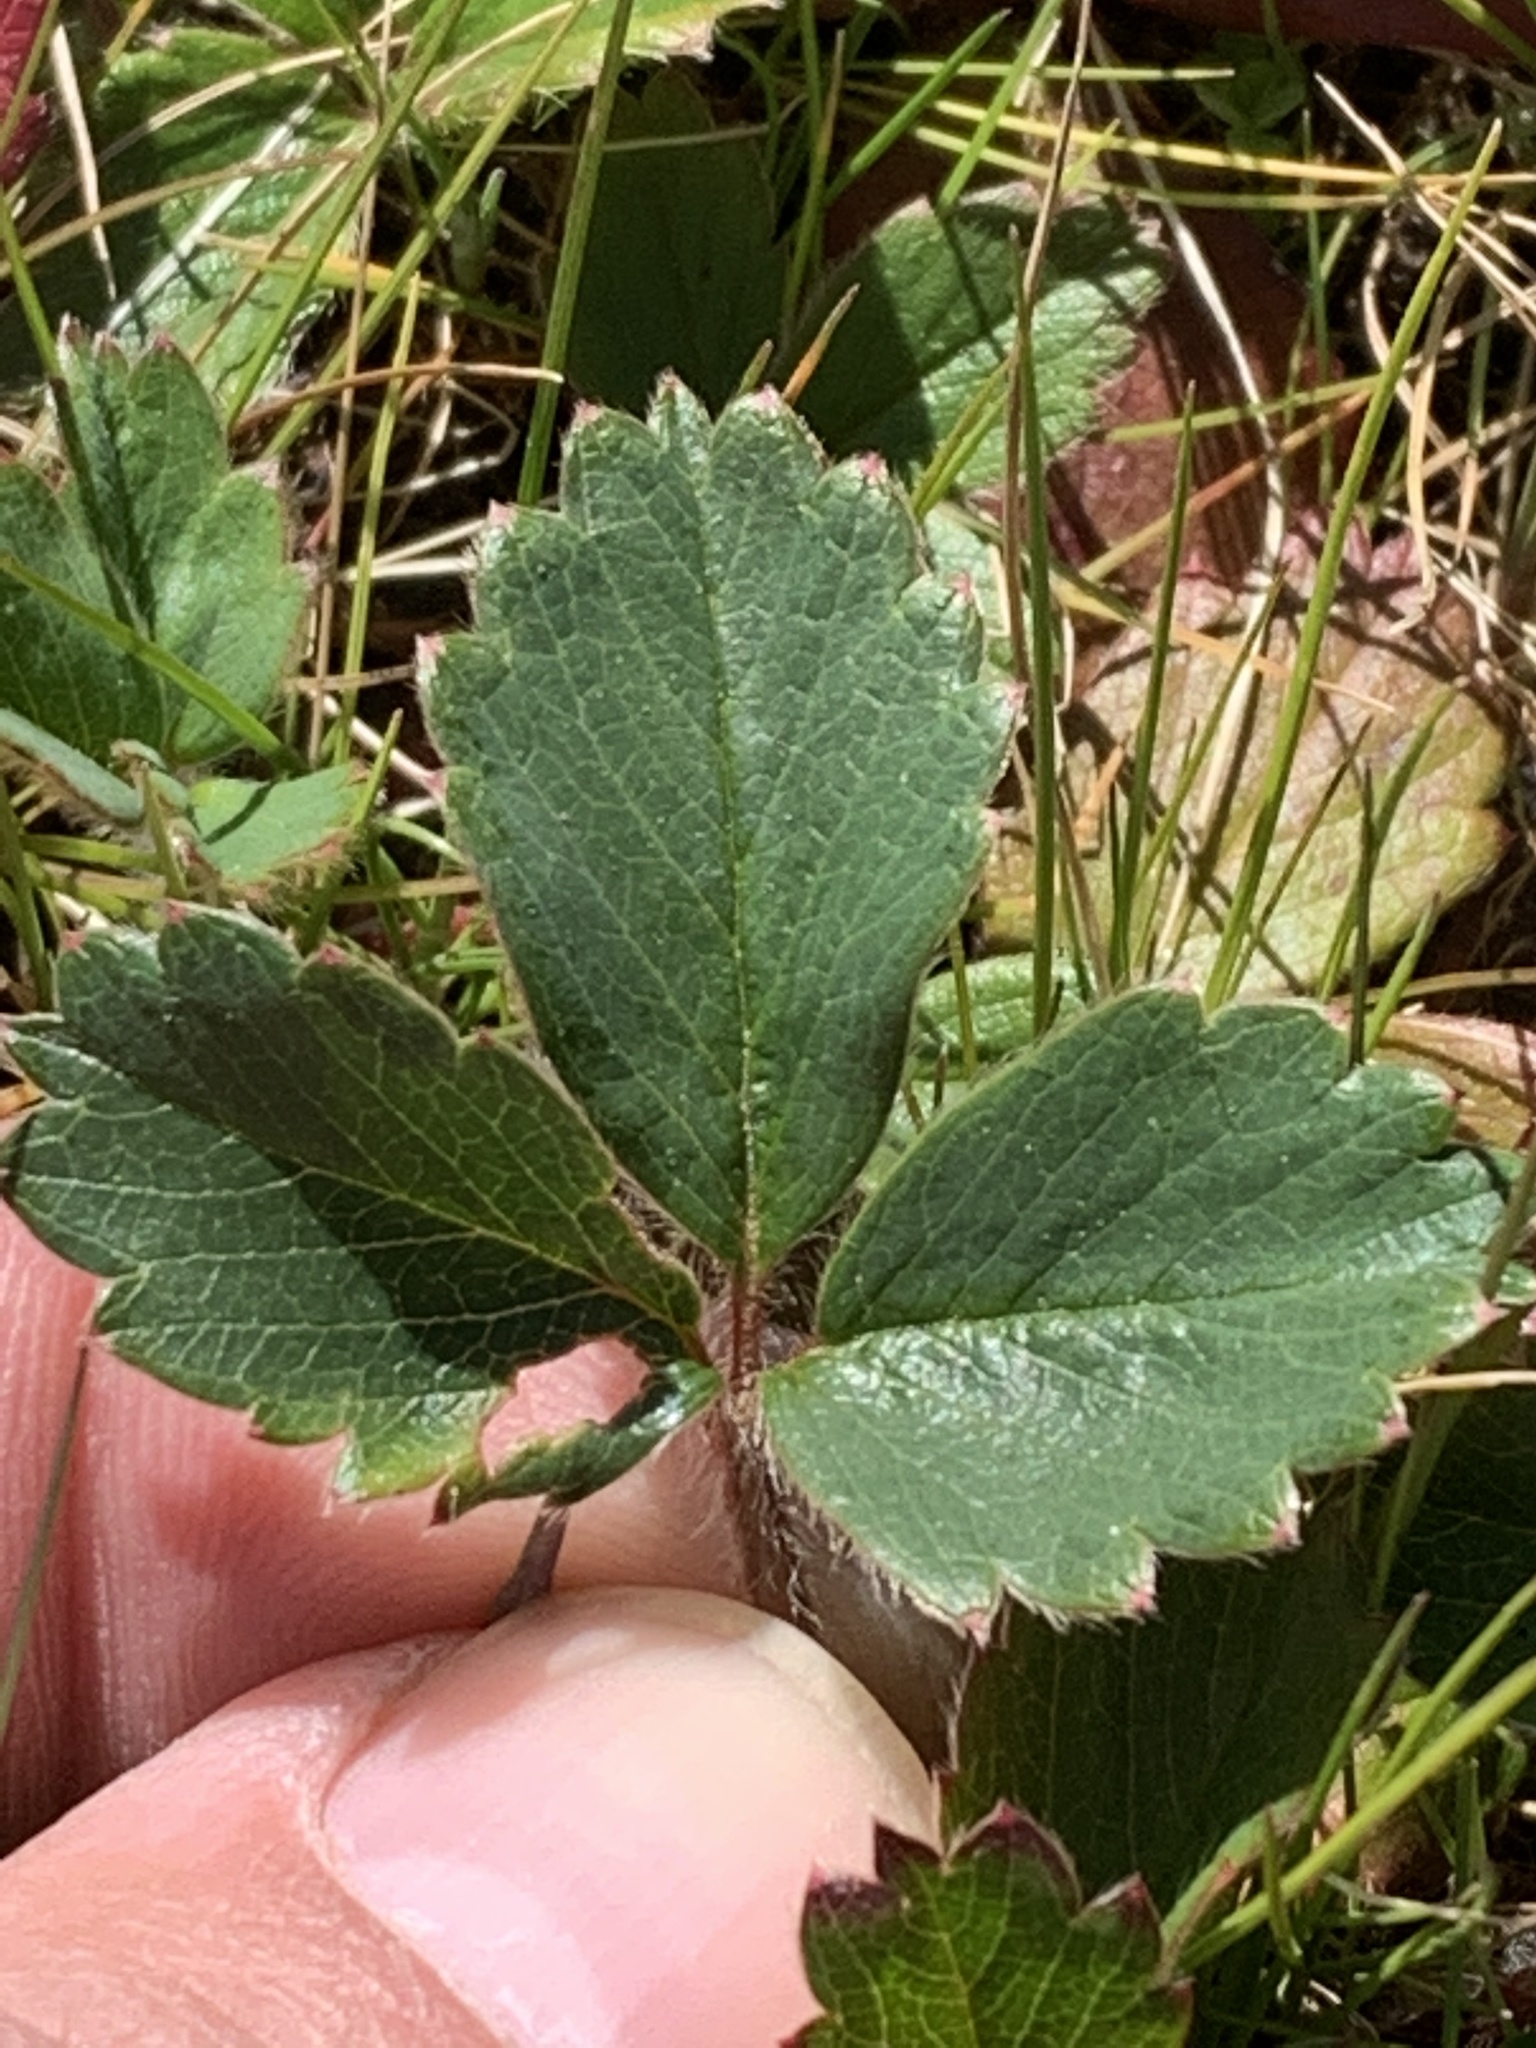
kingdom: Plantae
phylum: Tracheophyta
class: Magnoliopsida
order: Rosales
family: Rosaceae
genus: Fragaria
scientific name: Fragaria virginiana
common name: Thickleaved wild strawberry
